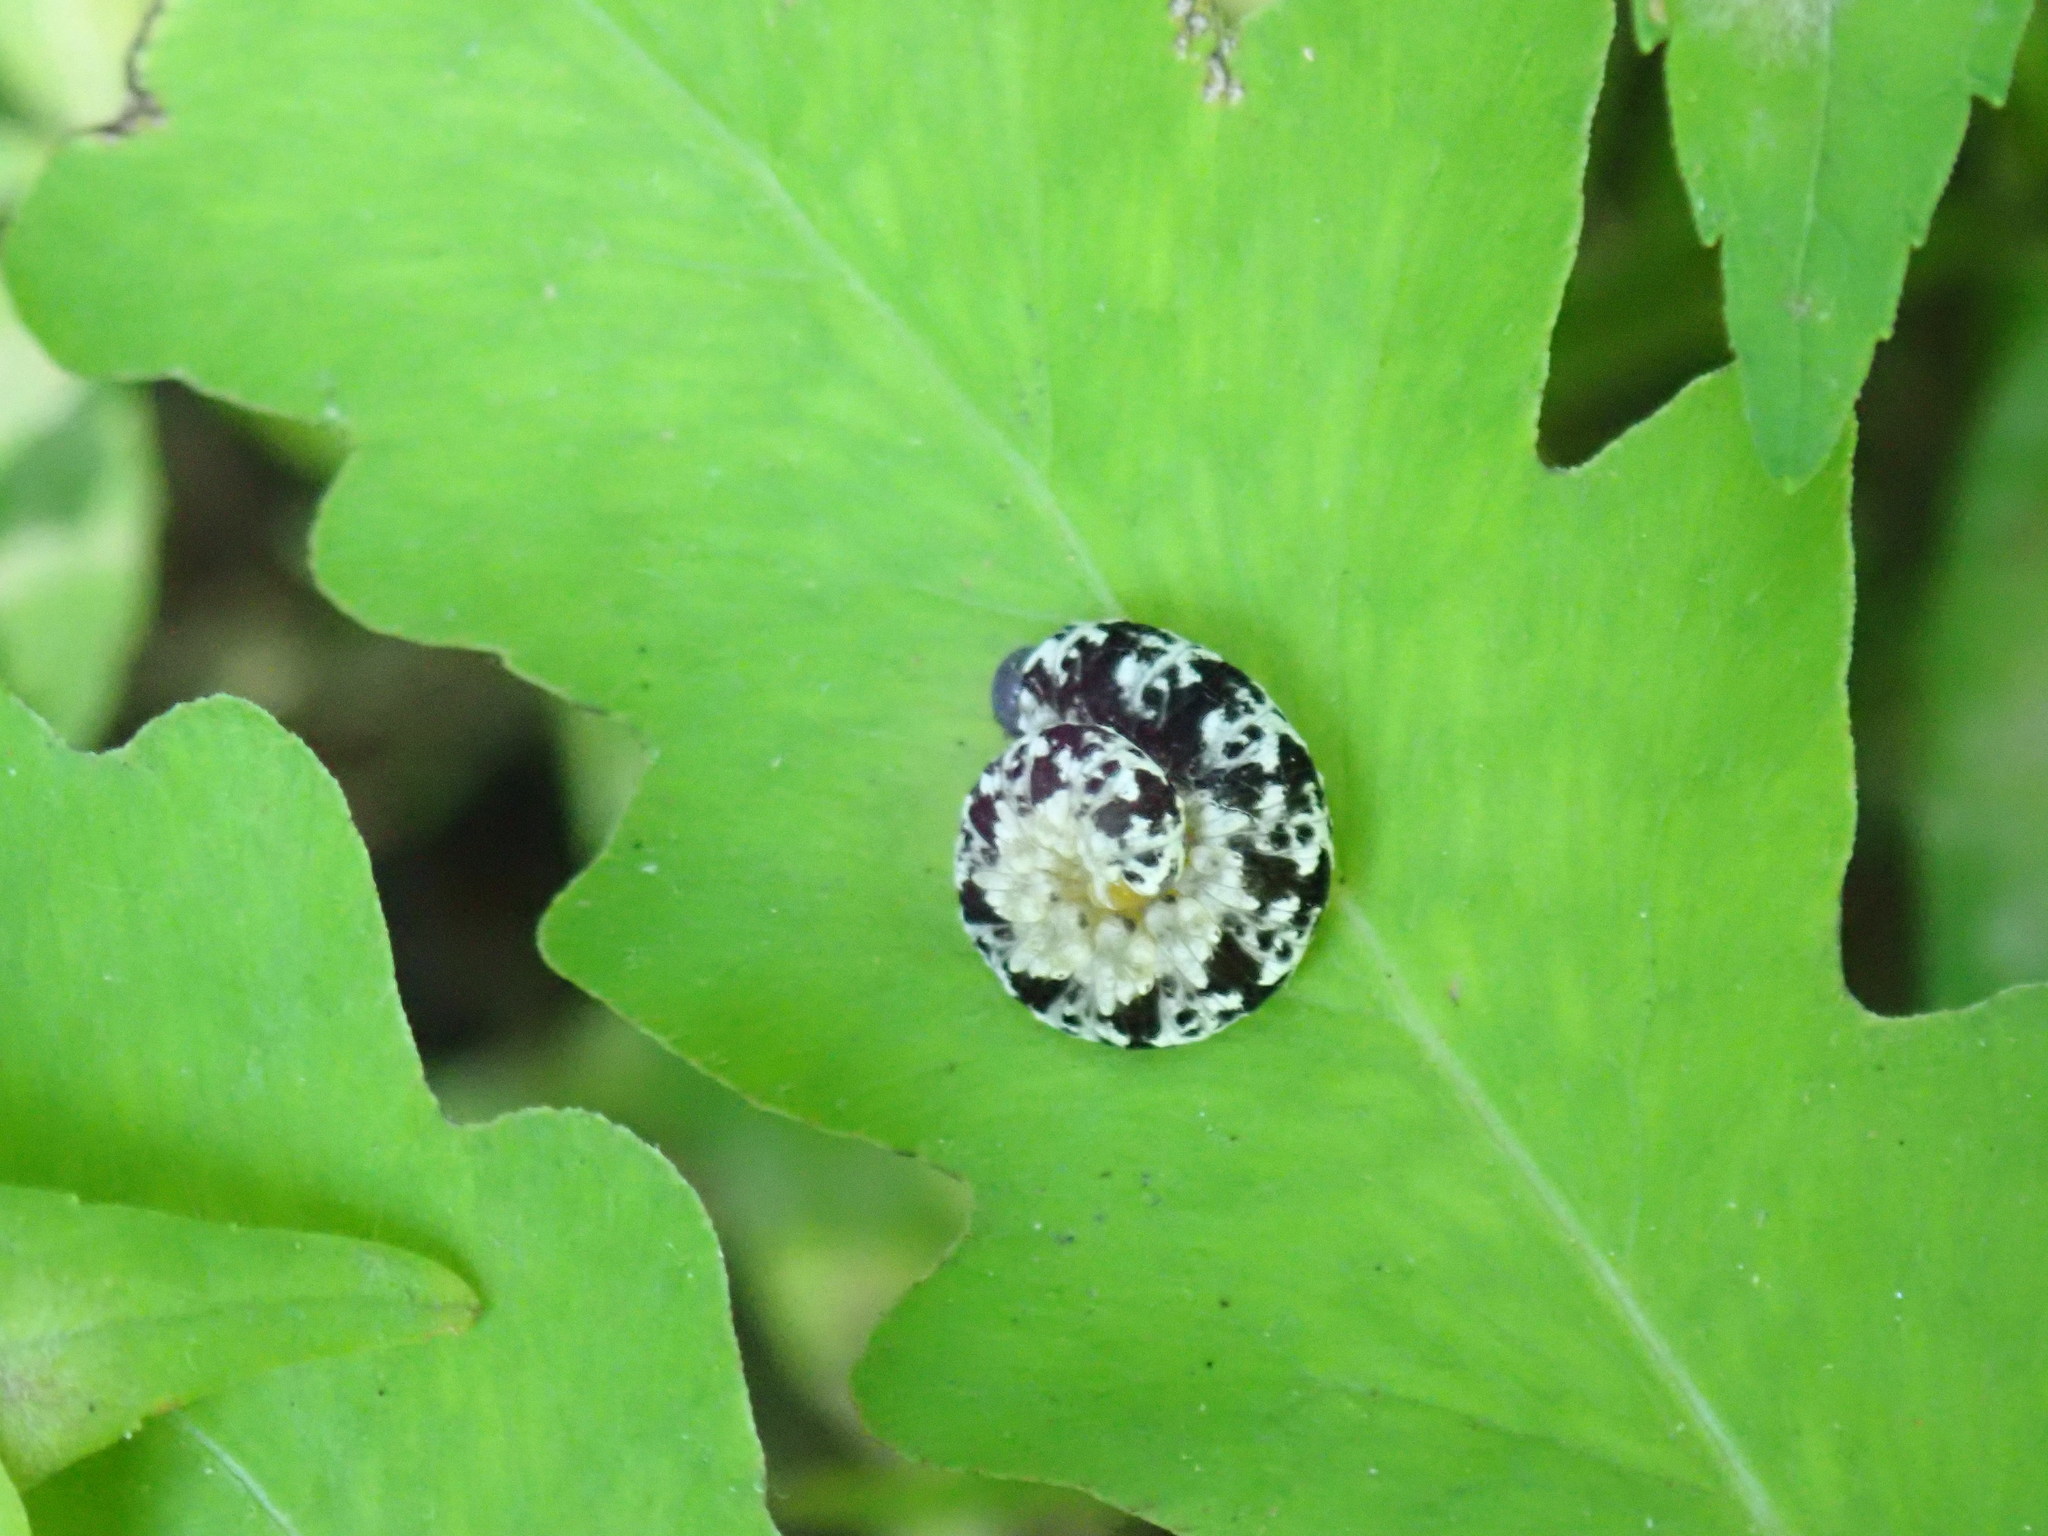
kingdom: Animalia
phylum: Arthropoda
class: Insecta
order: Hymenoptera
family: Tenthredinidae
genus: Tenthredo
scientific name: Tenthredo
